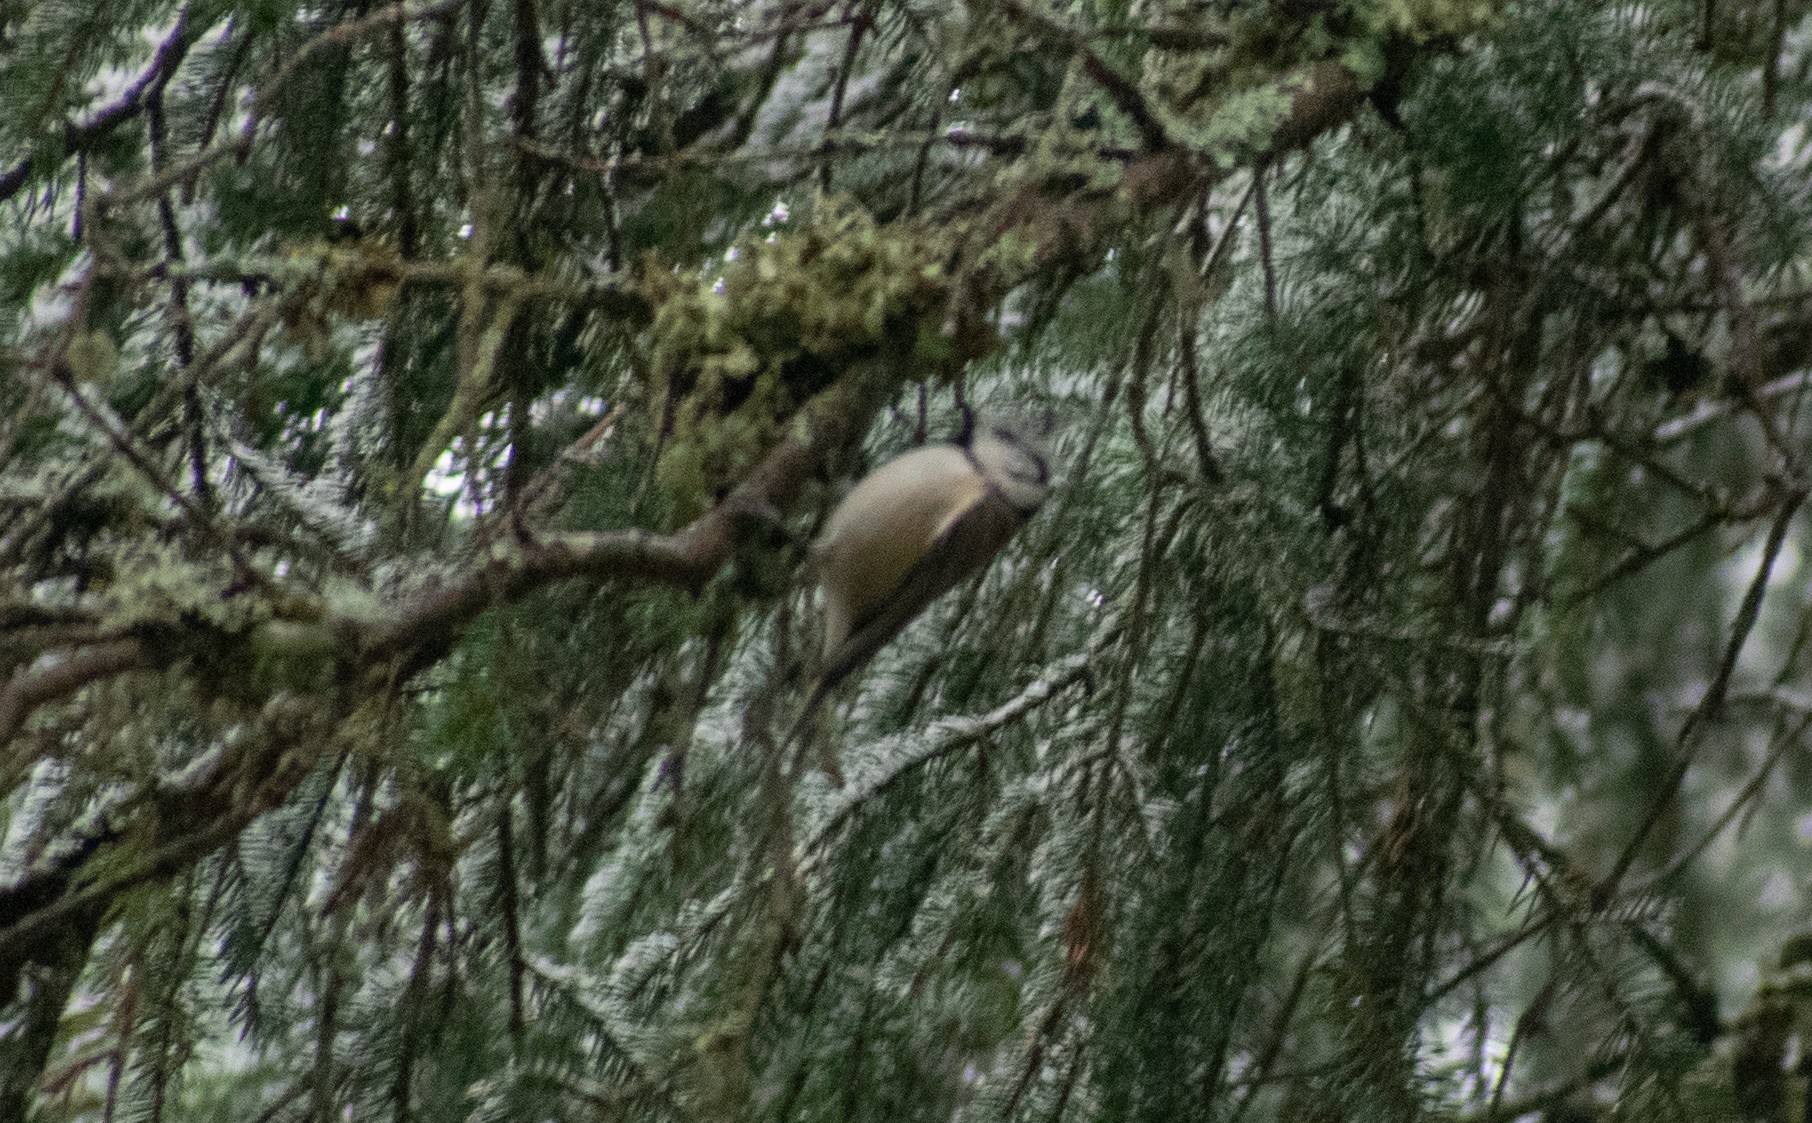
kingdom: Animalia
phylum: Chordata
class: Aves
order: Passeriformes
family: Paridae
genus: Lophophanes
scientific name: Lophophanes cristatus
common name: European crested tit
